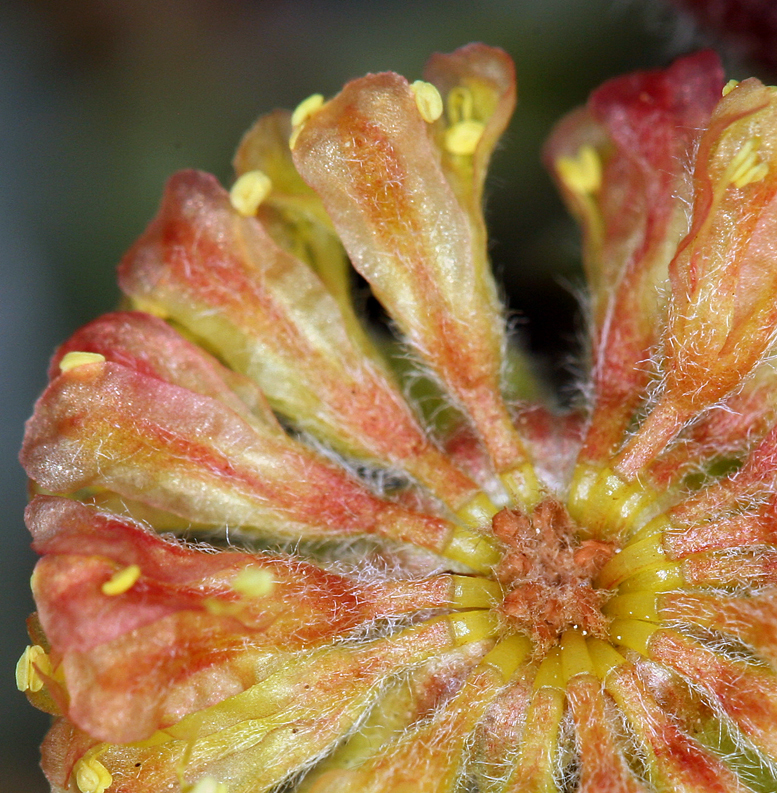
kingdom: Plantae
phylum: Tracheophyta
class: Magnoliopsida
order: Caryophyllales
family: Polygonaceae
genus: Eriogonum
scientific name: Eriogonum douglasii
